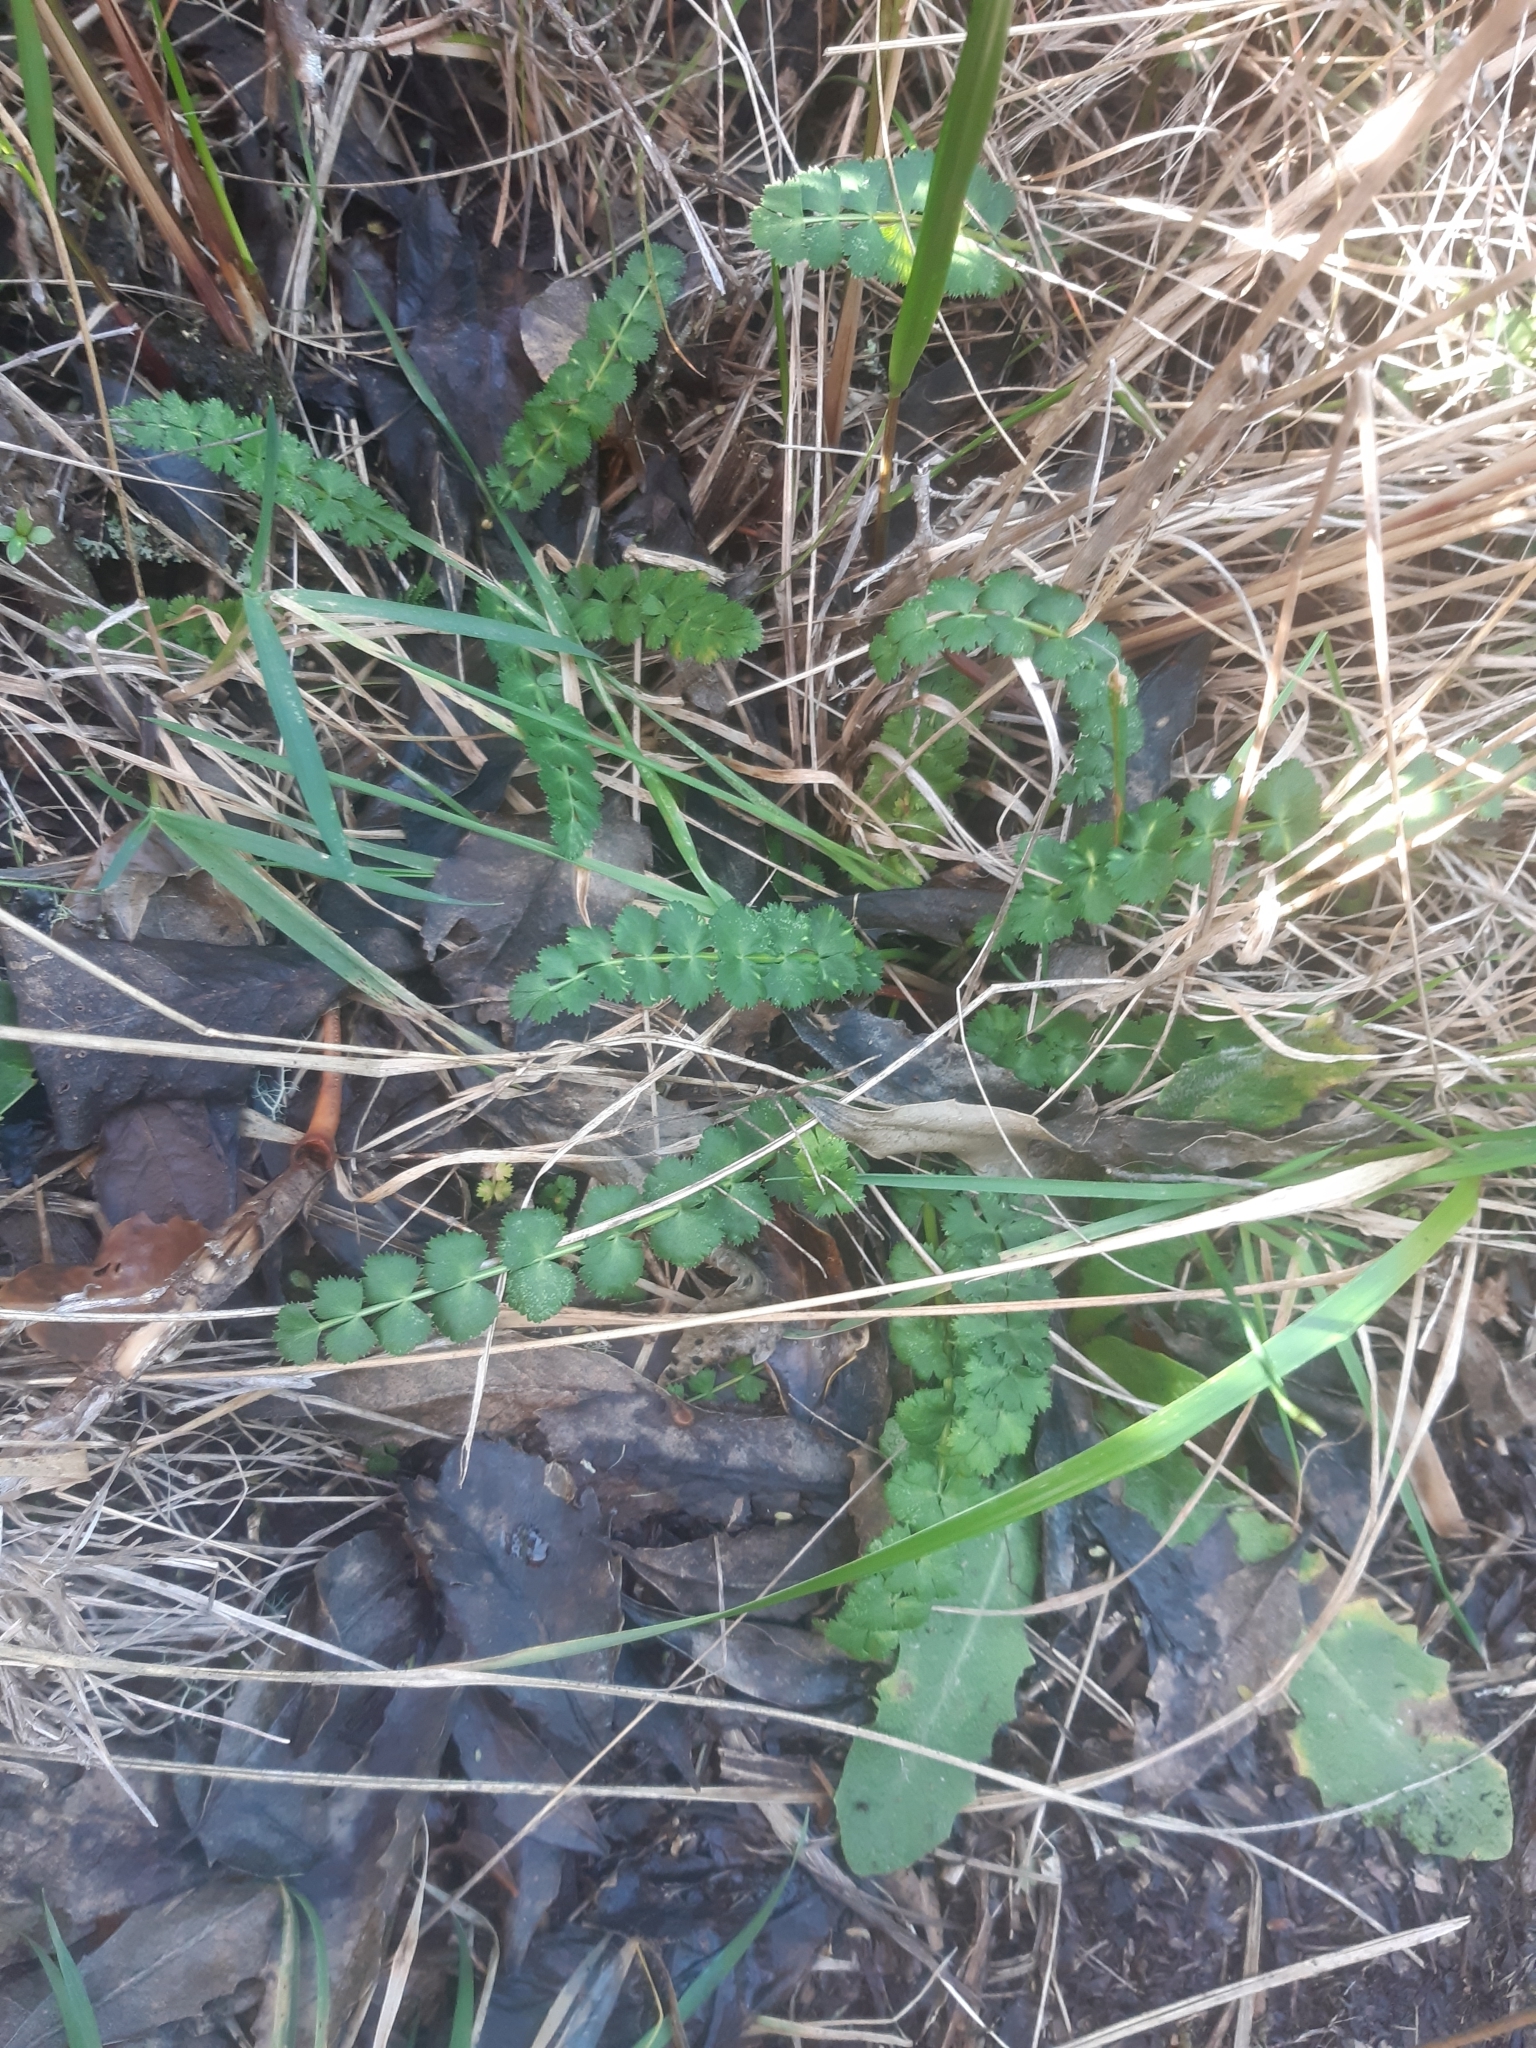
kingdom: Plantae
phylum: Tracheophyta
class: Magnoliopsida
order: Apiales
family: Apiaceae
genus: Anisotome
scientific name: Anisotome aromatica
